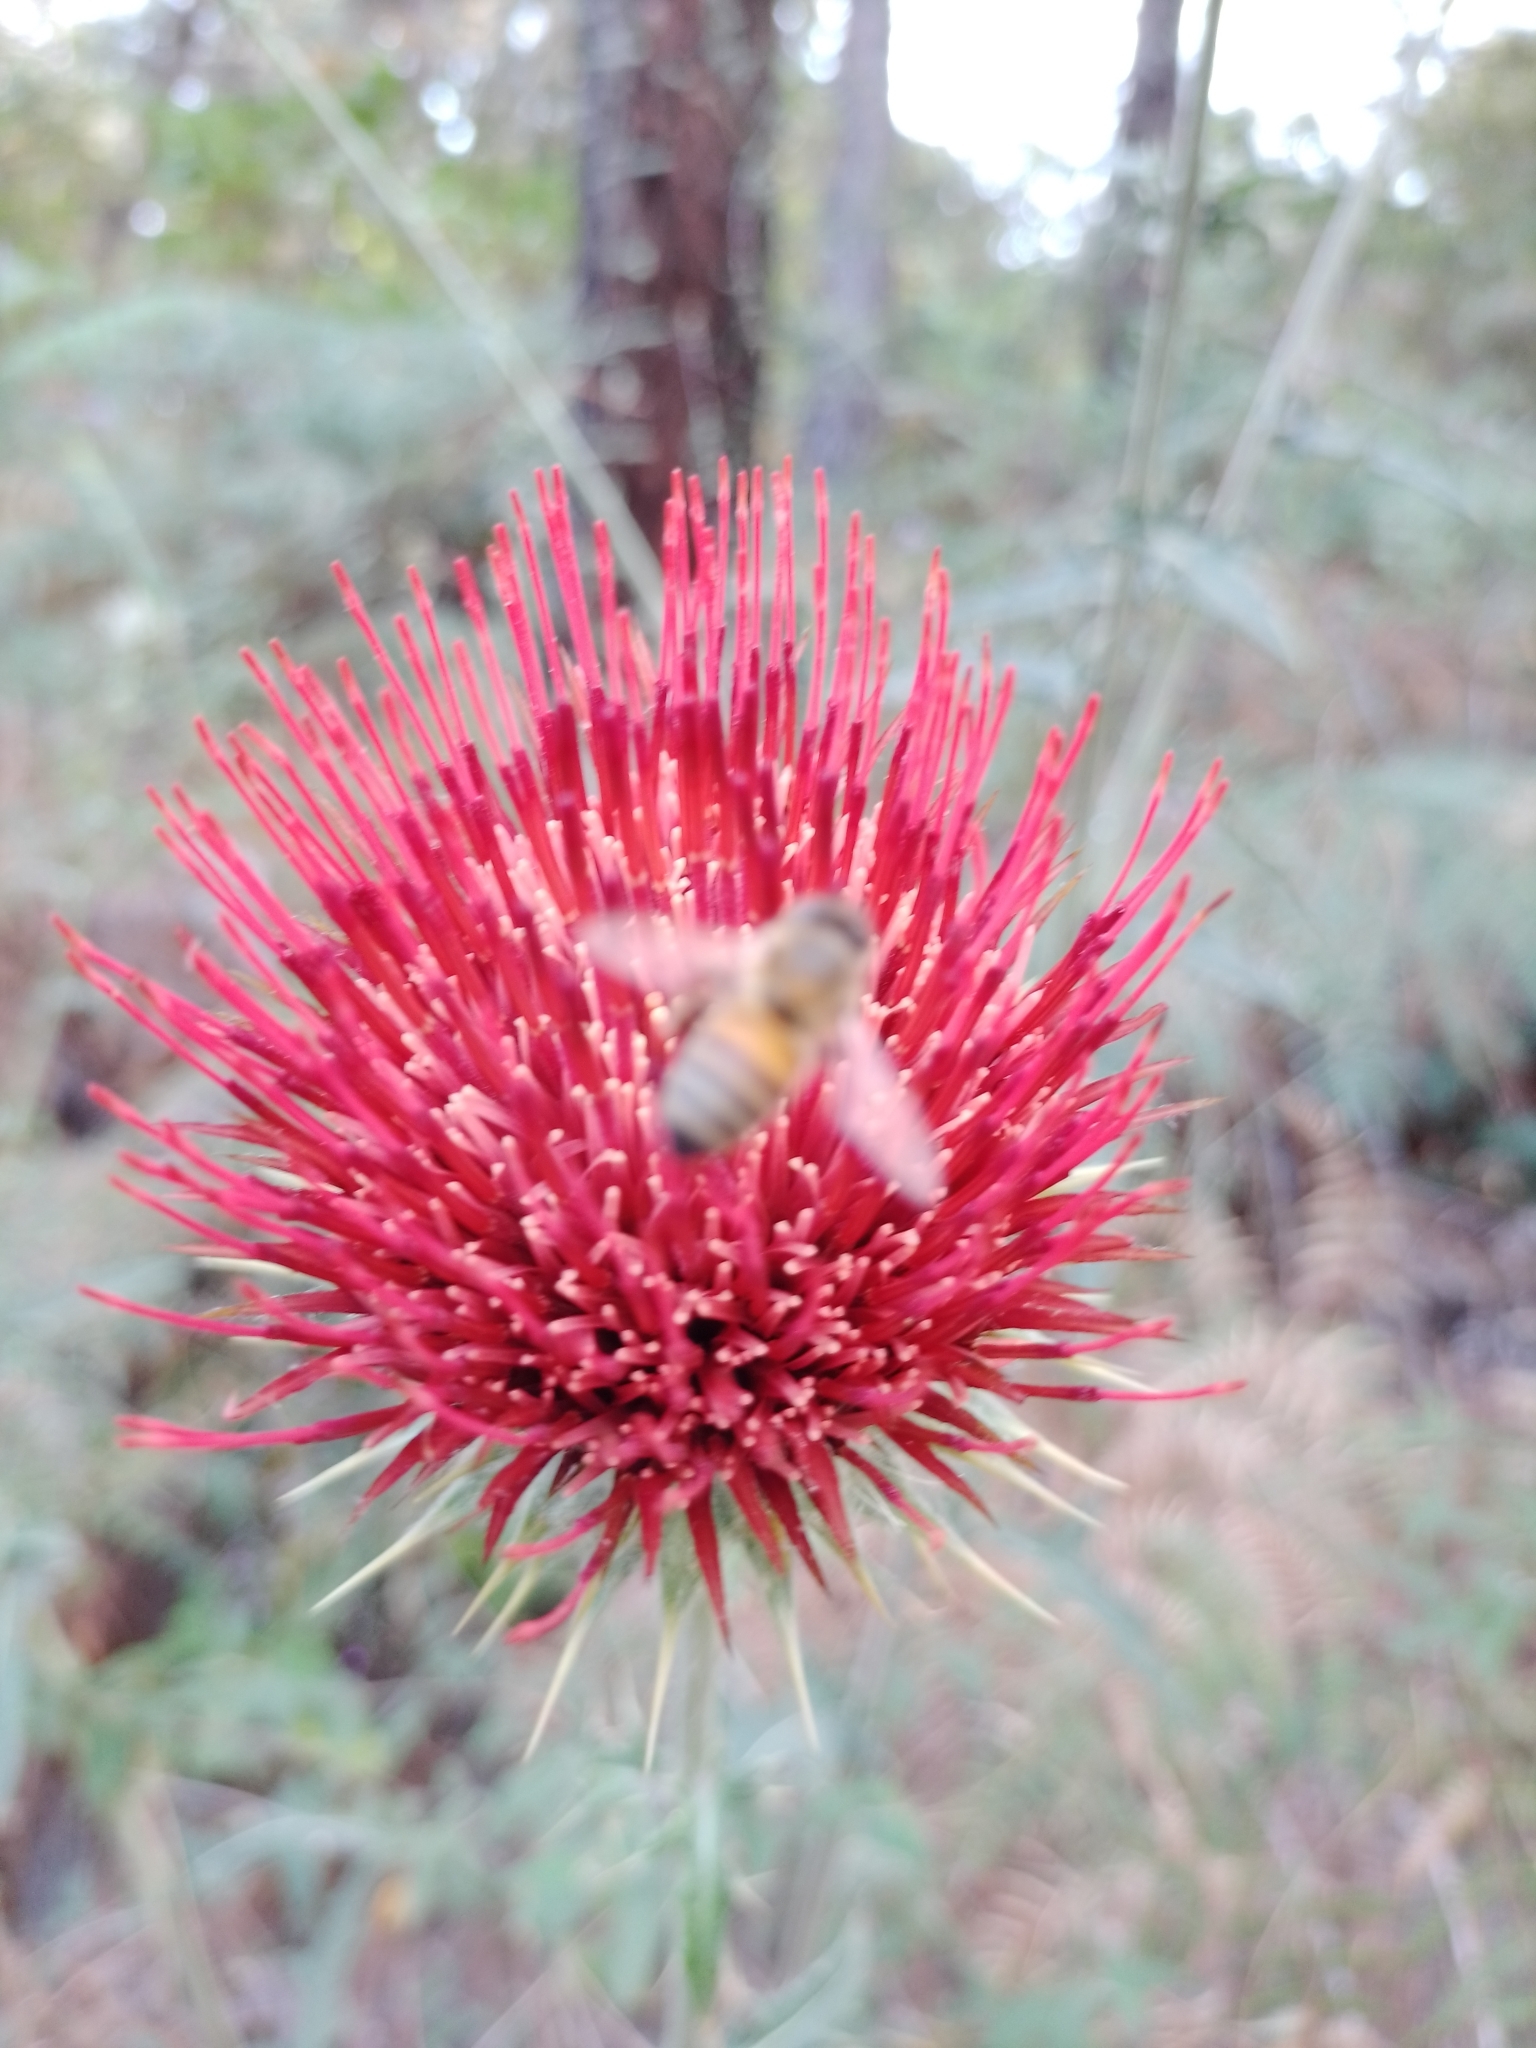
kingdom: Animalia
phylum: Arthropoda
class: Insecta
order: Hymenoptera
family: Apidae
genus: Apis
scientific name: Apis mellifera
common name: Honey bee
